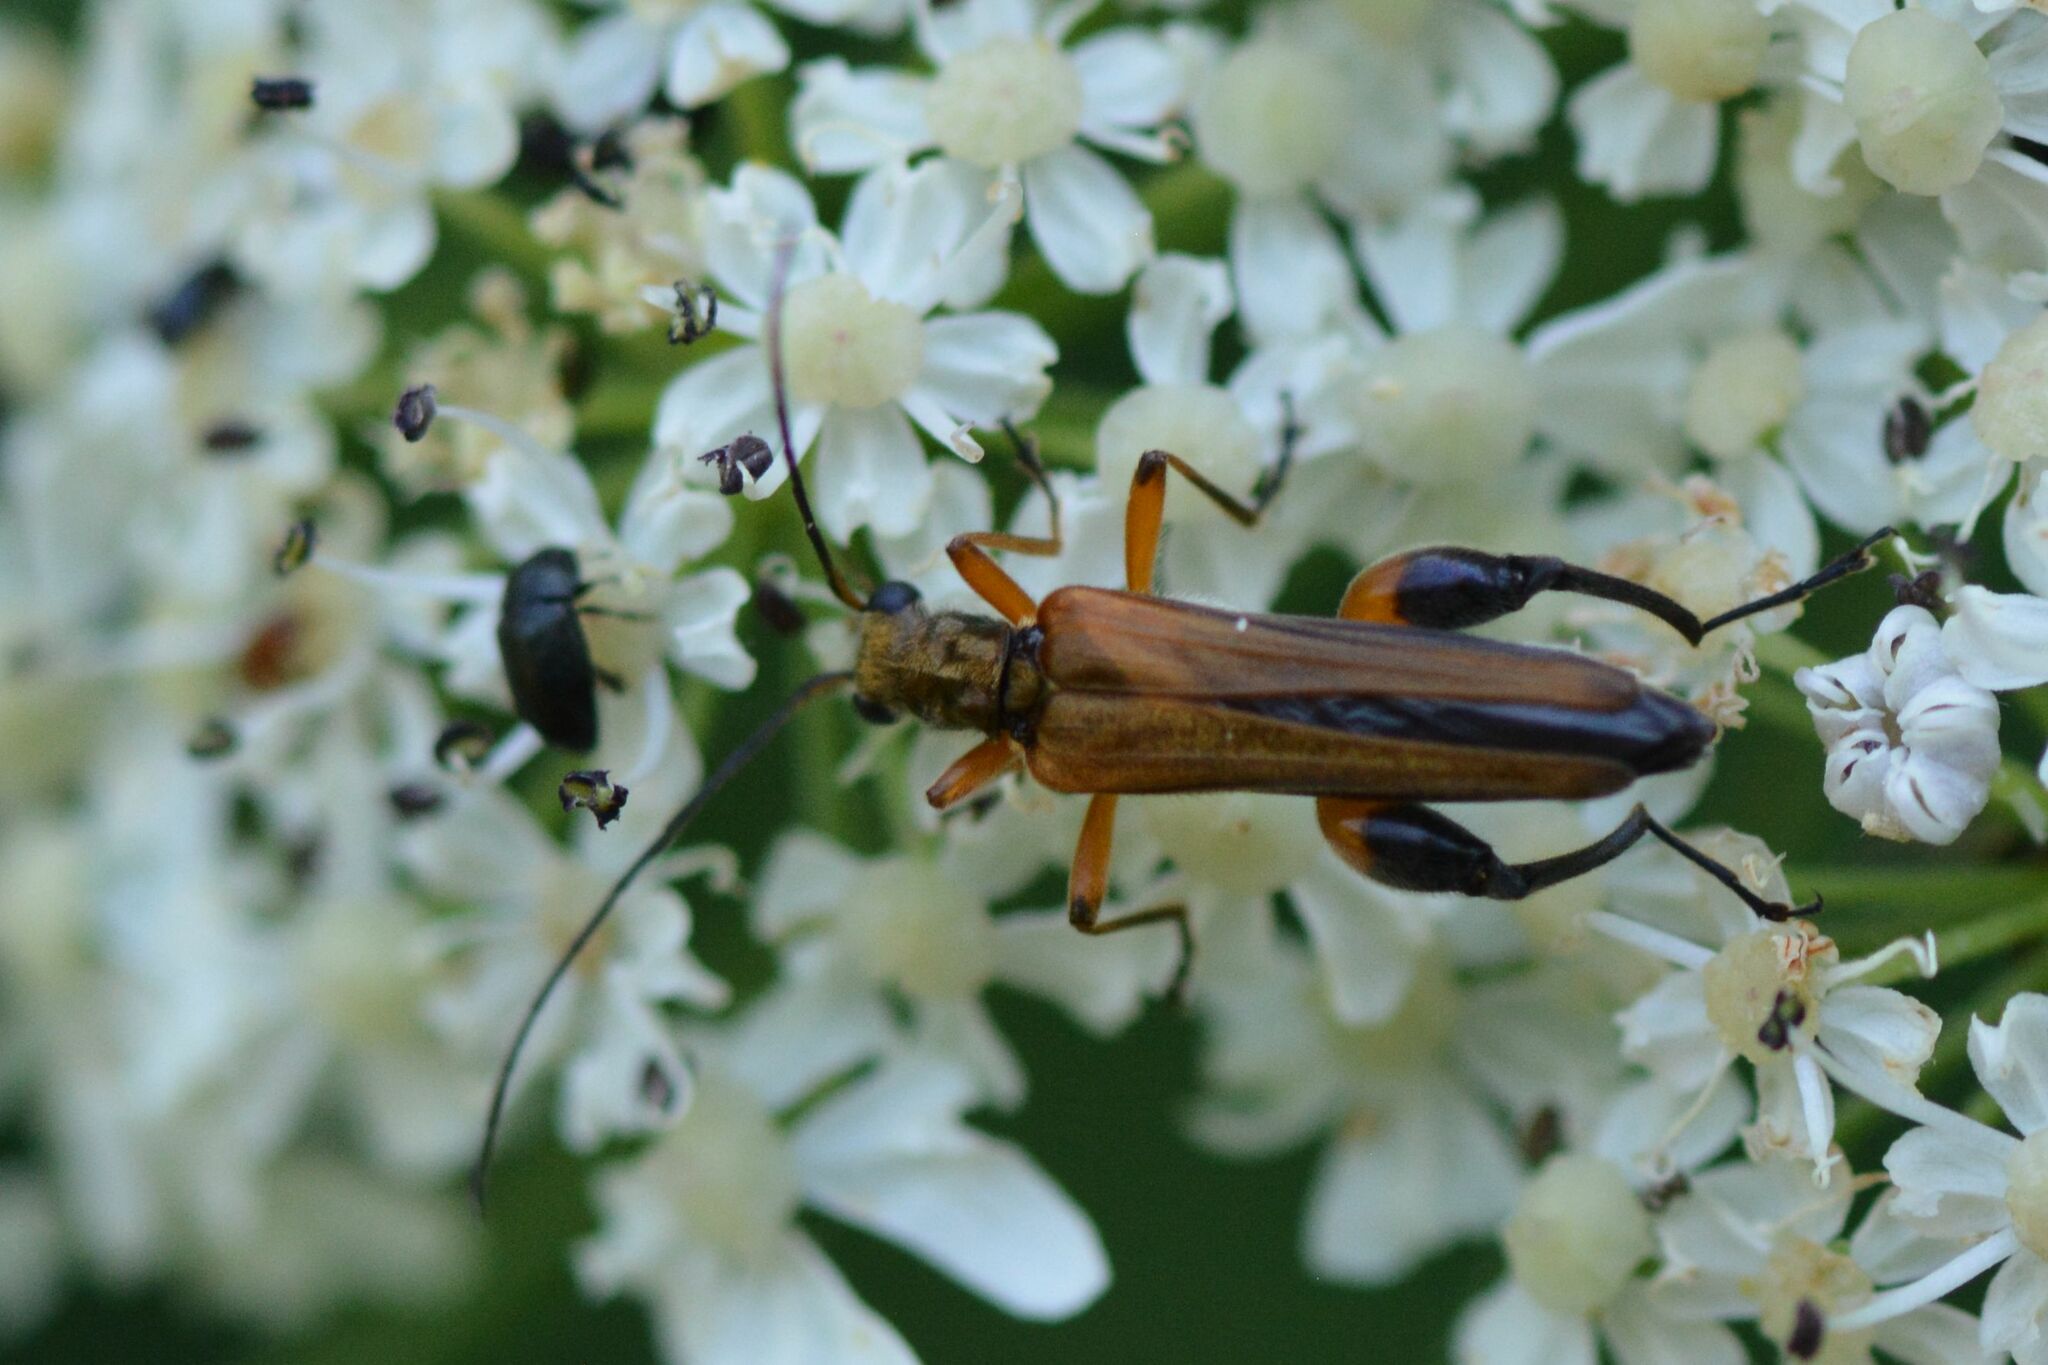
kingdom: Animalia
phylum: Arthropoda
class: Insecta
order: Coleoptera
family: Oedemeridae
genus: Oedemera
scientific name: Oedemera podagrariae
